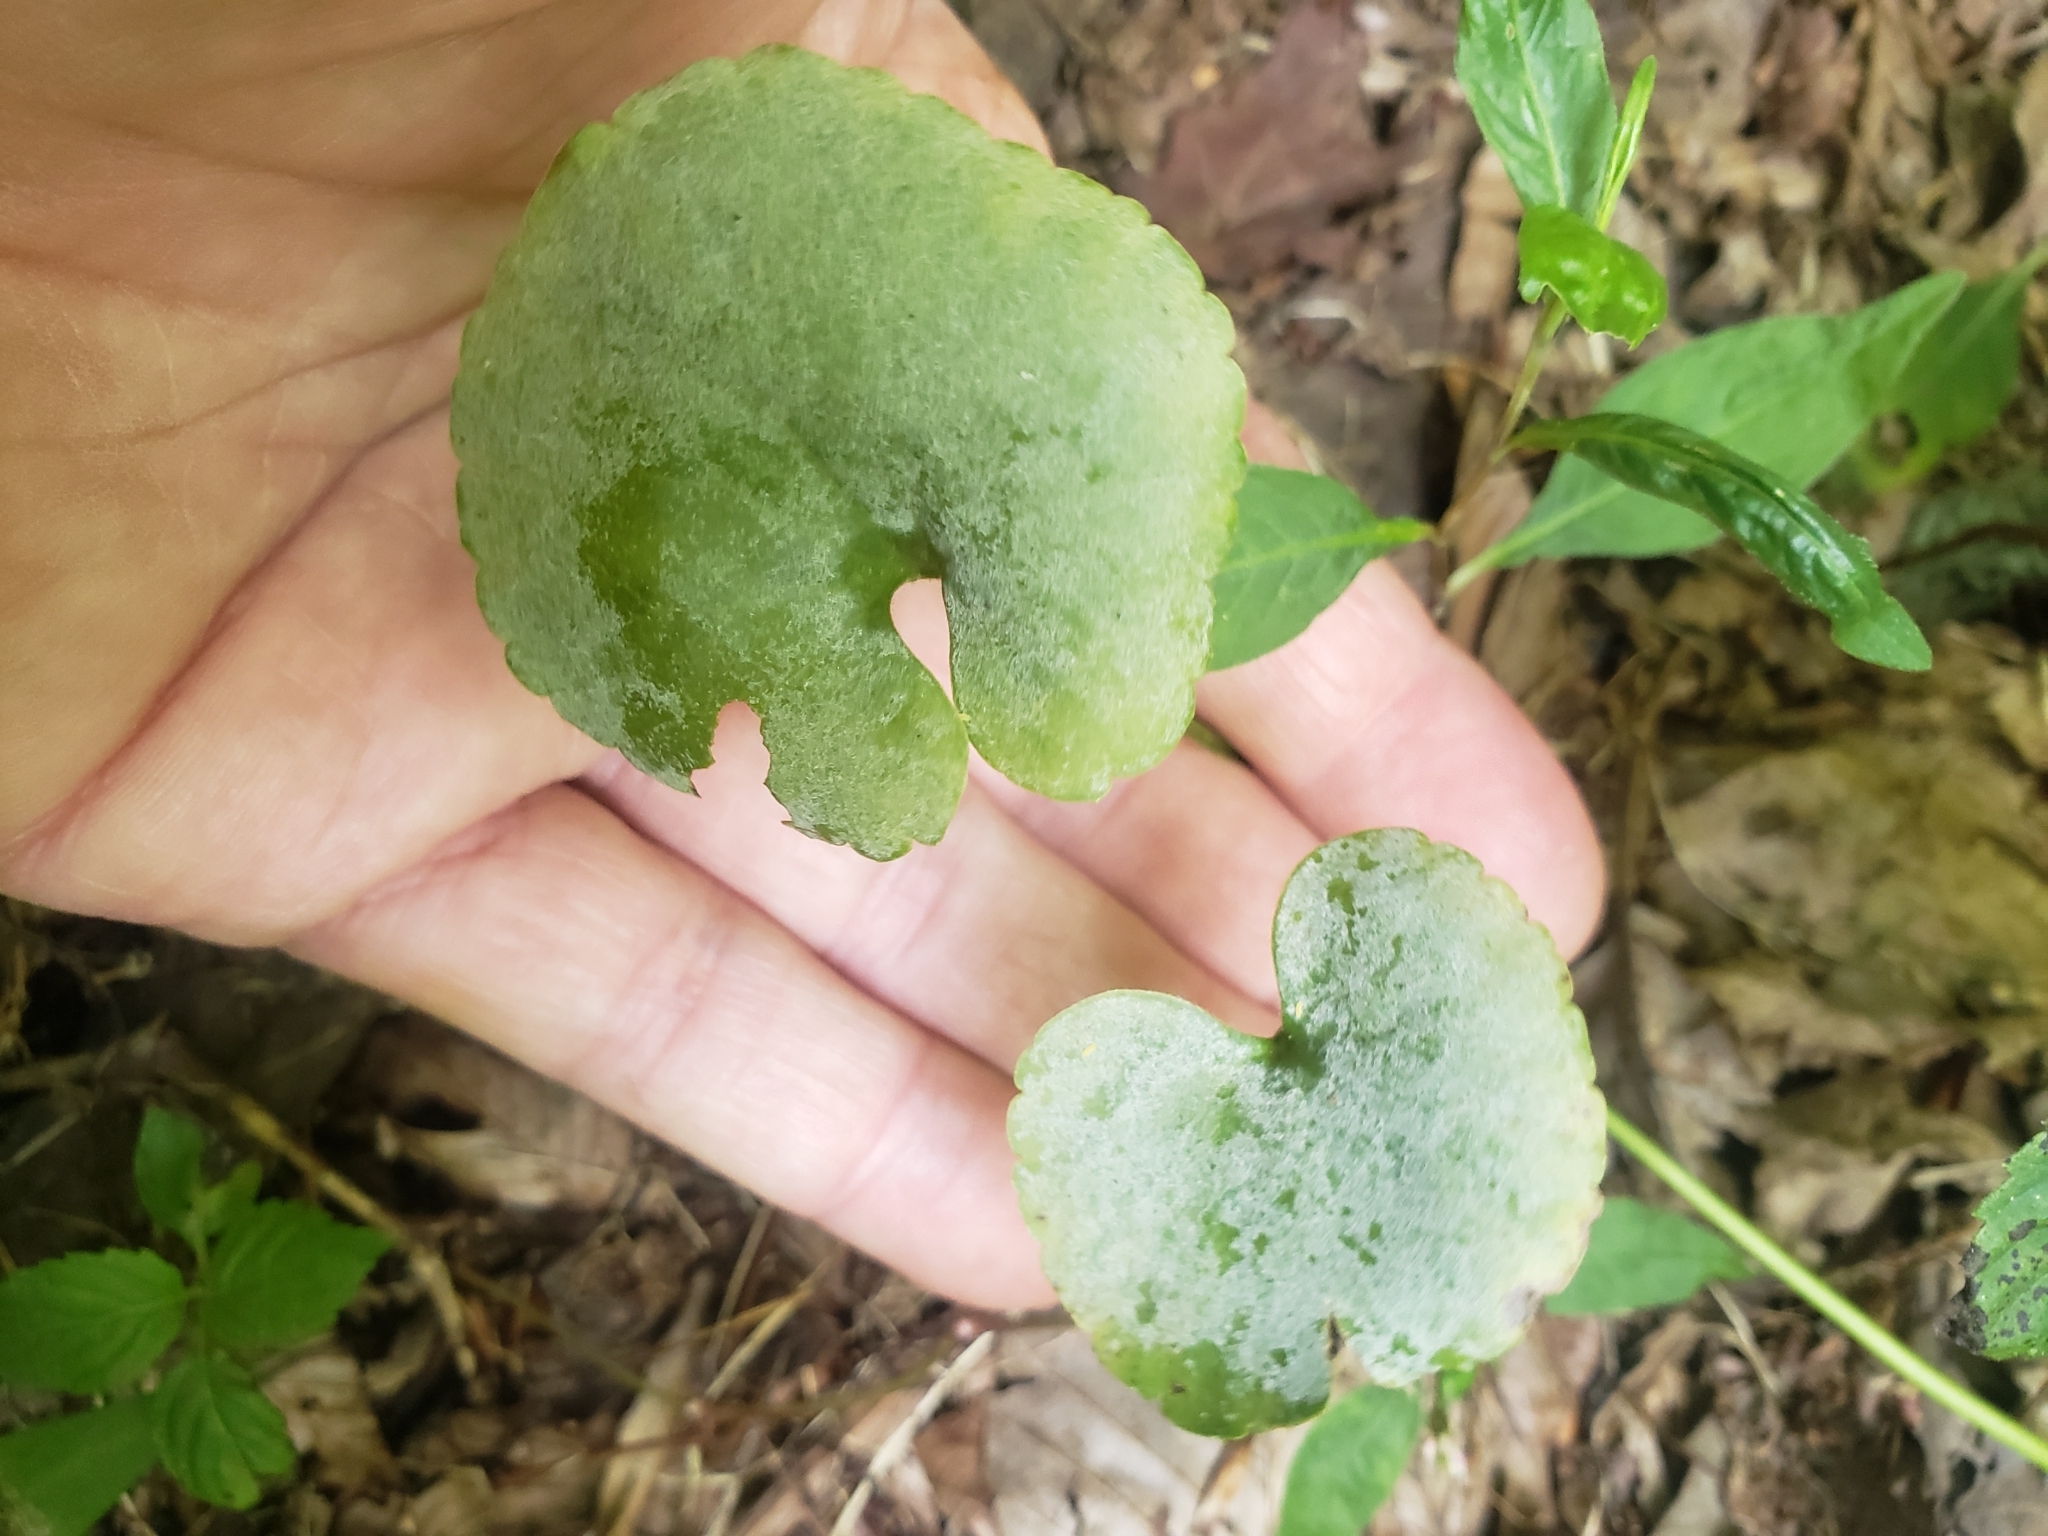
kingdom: Fungi
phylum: Ascomycota
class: Leotiomycetes
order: Helotiales
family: Erysiphaceae
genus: Erysiphe
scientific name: Erysiphe aquilegiae
